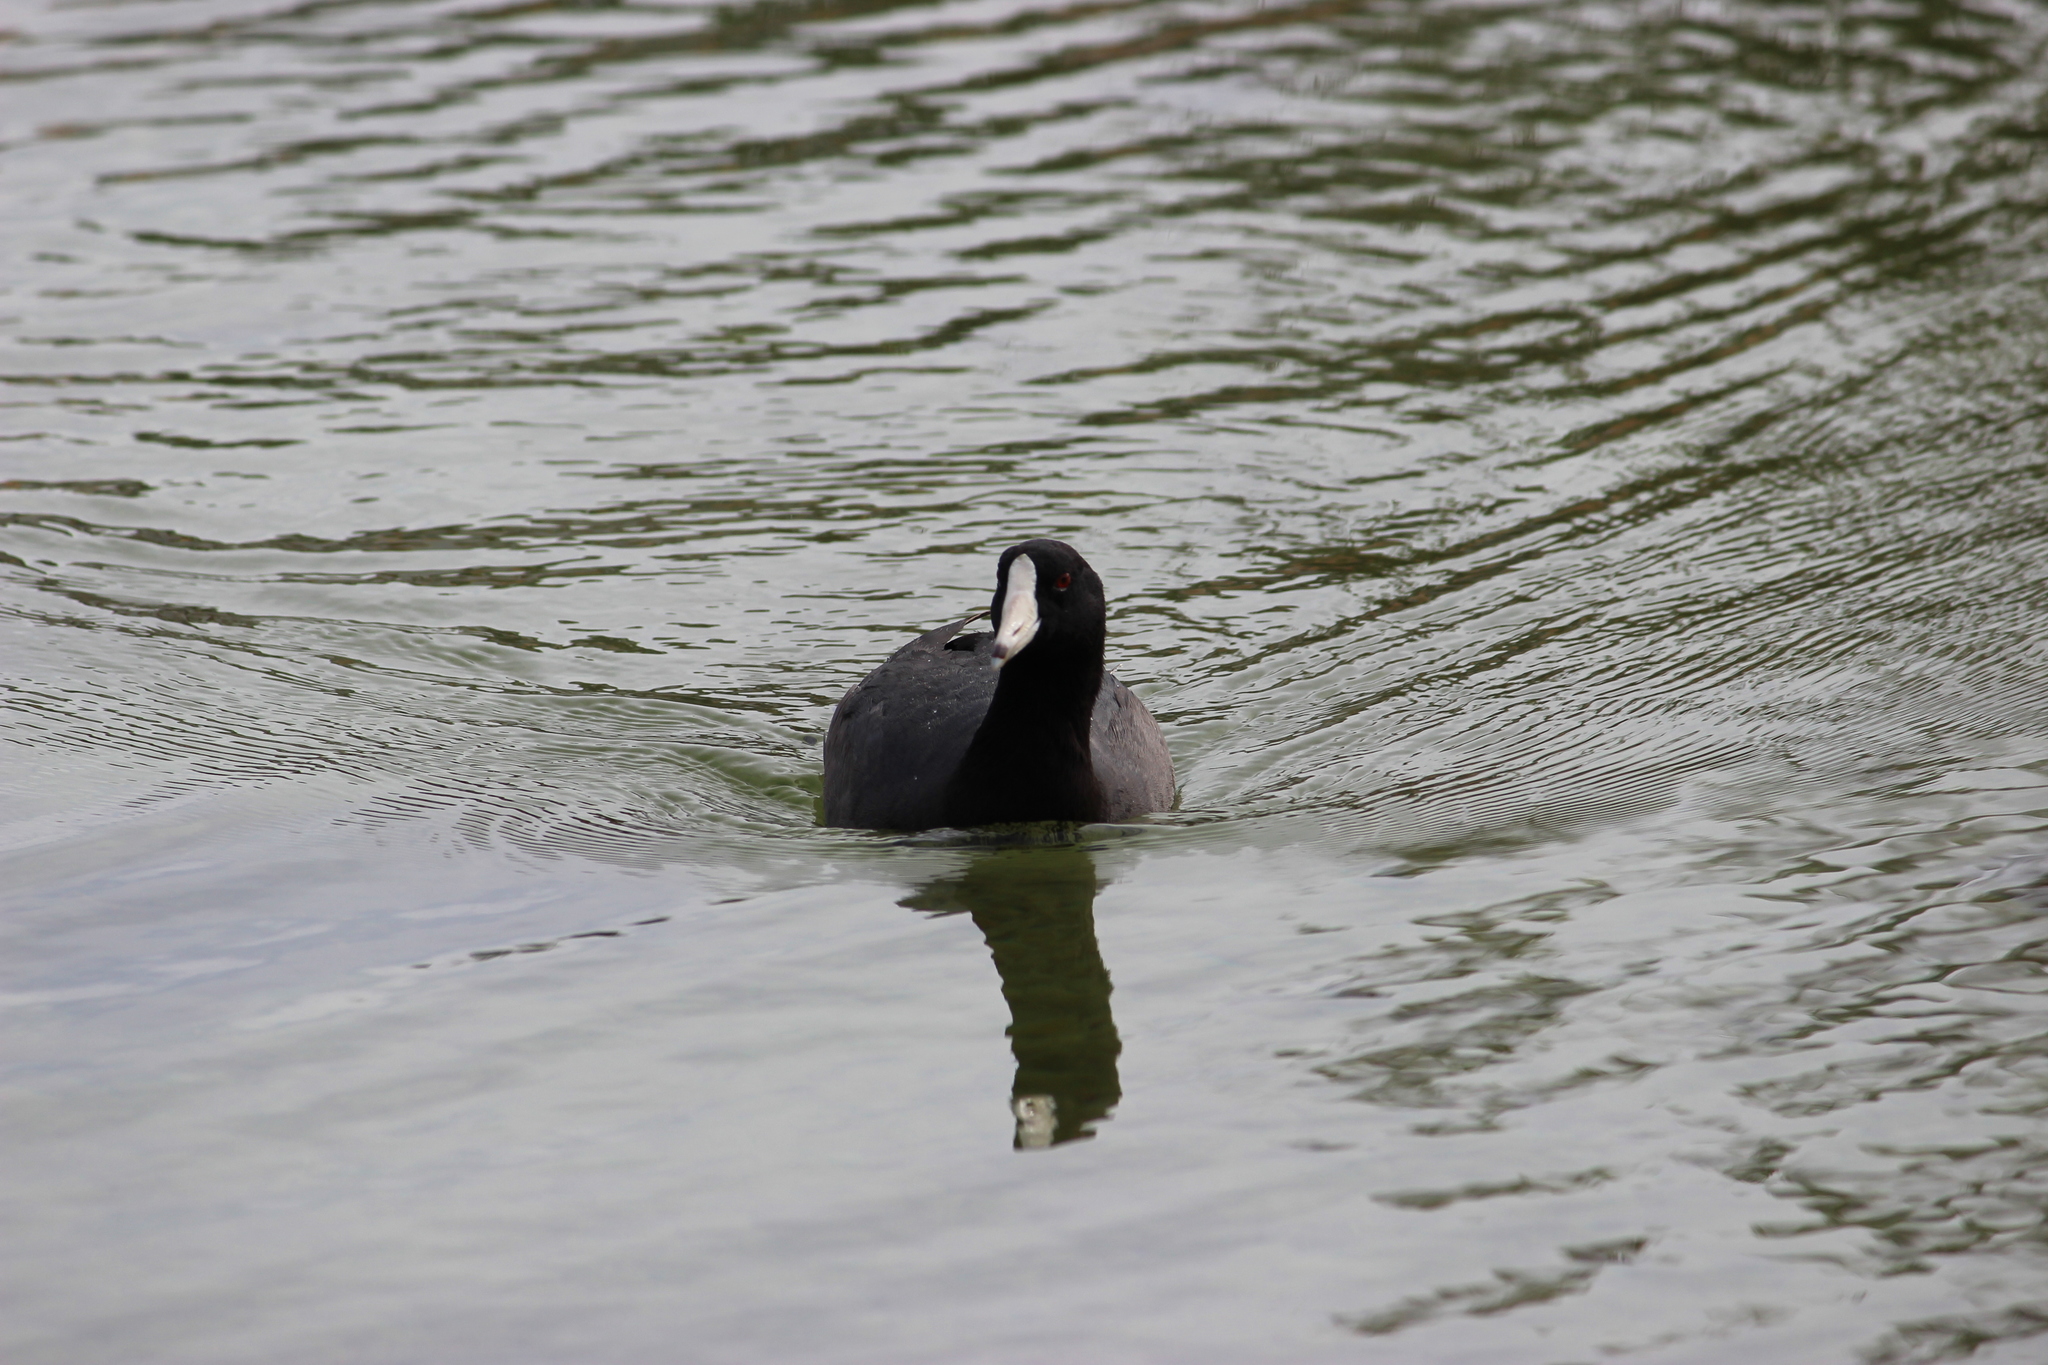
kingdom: Animalia
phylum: Chordata
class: Aves
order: Gruiformes
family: Rallidae
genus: Fulica
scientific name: Fulica americana
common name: American coot
